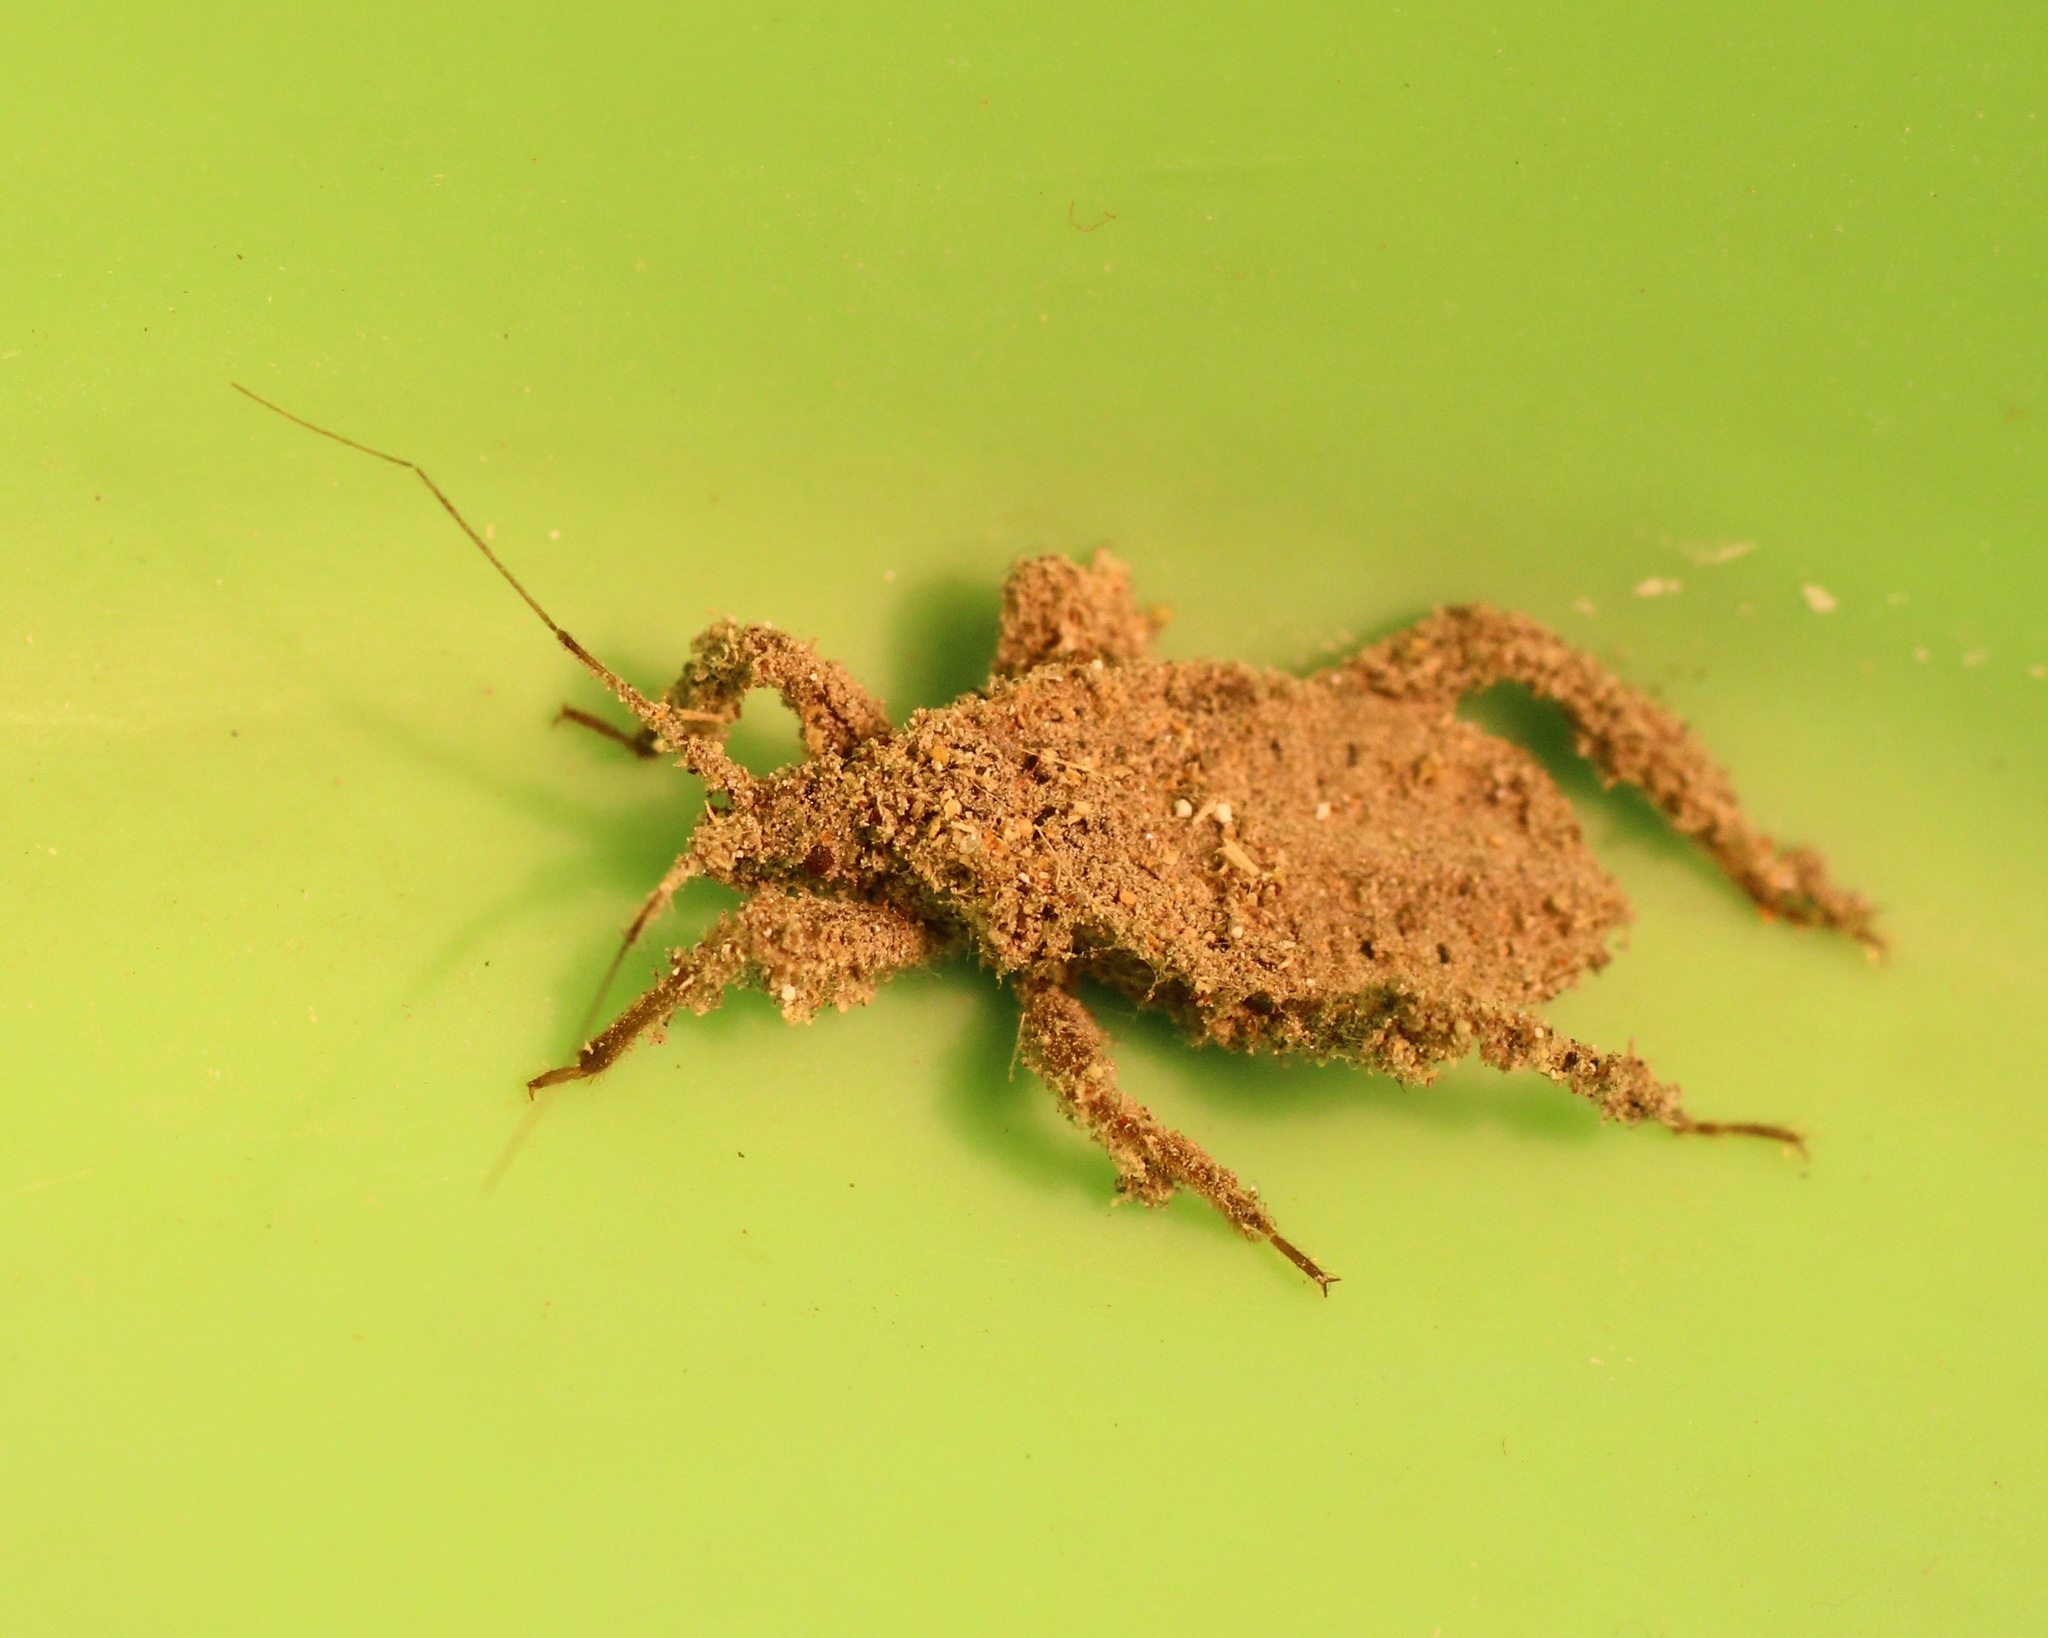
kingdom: Animalia
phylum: Arthropoda
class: Insecta
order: Hemiptera
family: Reduviidae
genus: Reduvius
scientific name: Reduvius personatus
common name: Masked hunter
